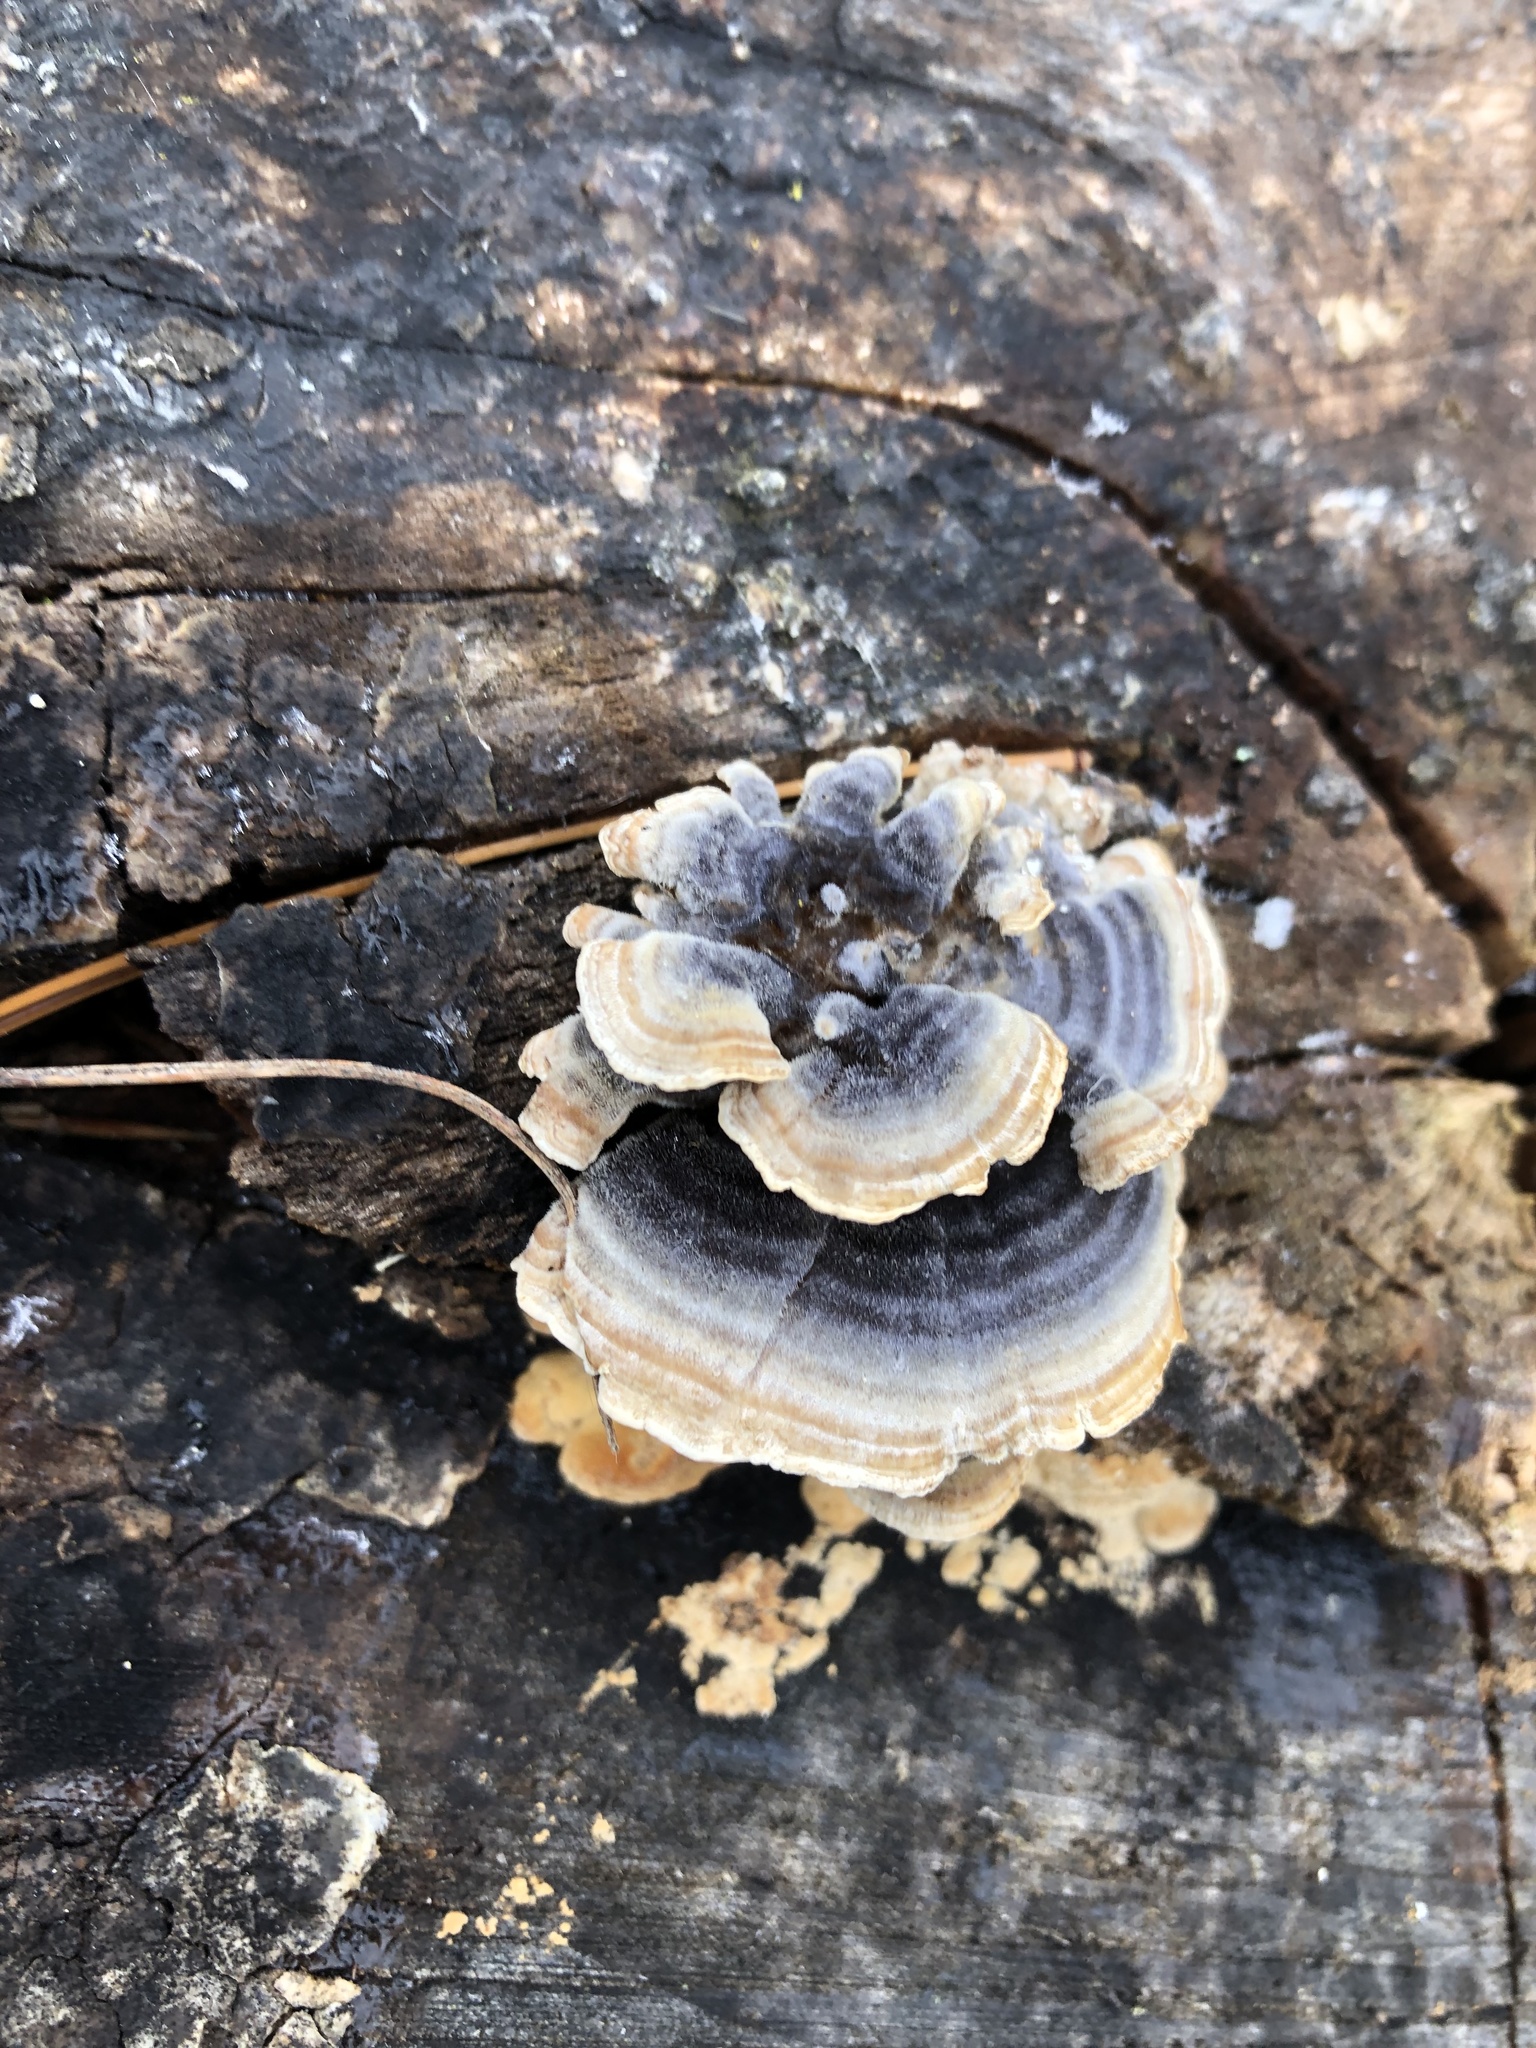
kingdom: Fungi
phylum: Basidiomycota
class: Agaricomycetes
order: Polyporales
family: Polyporaceae
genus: Trametes
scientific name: Trametes versicolor
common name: Turkeytail
